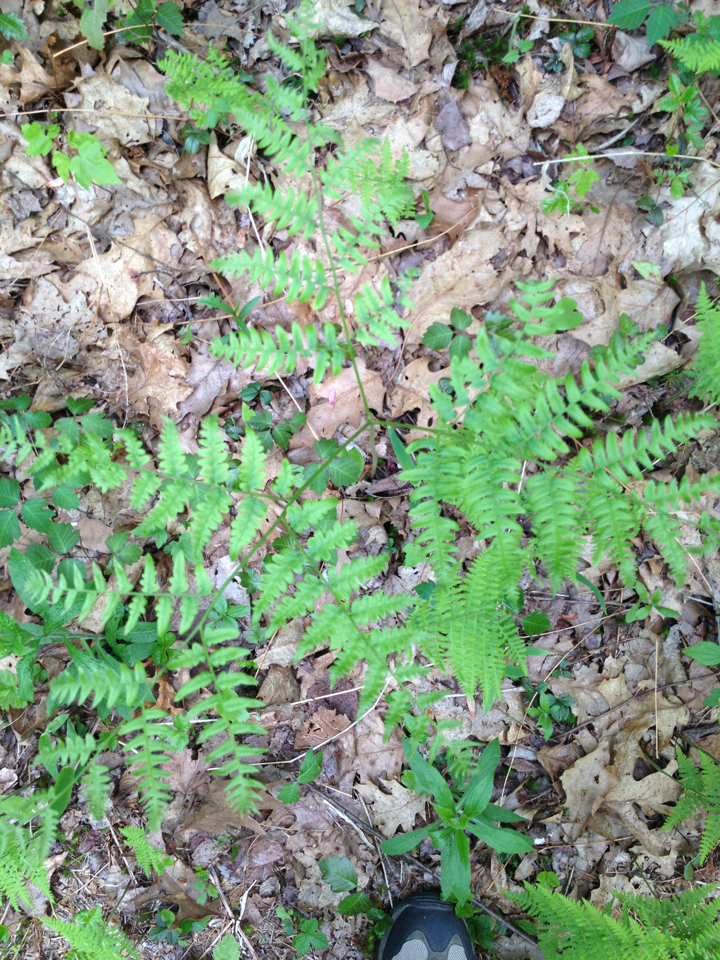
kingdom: Plantae
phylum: Tracheophyta
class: Polypodiopsida
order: Polypodiales
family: Dennstaedtiaceae
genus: Pteridium
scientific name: Pteridium aquilinum
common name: Bracken
